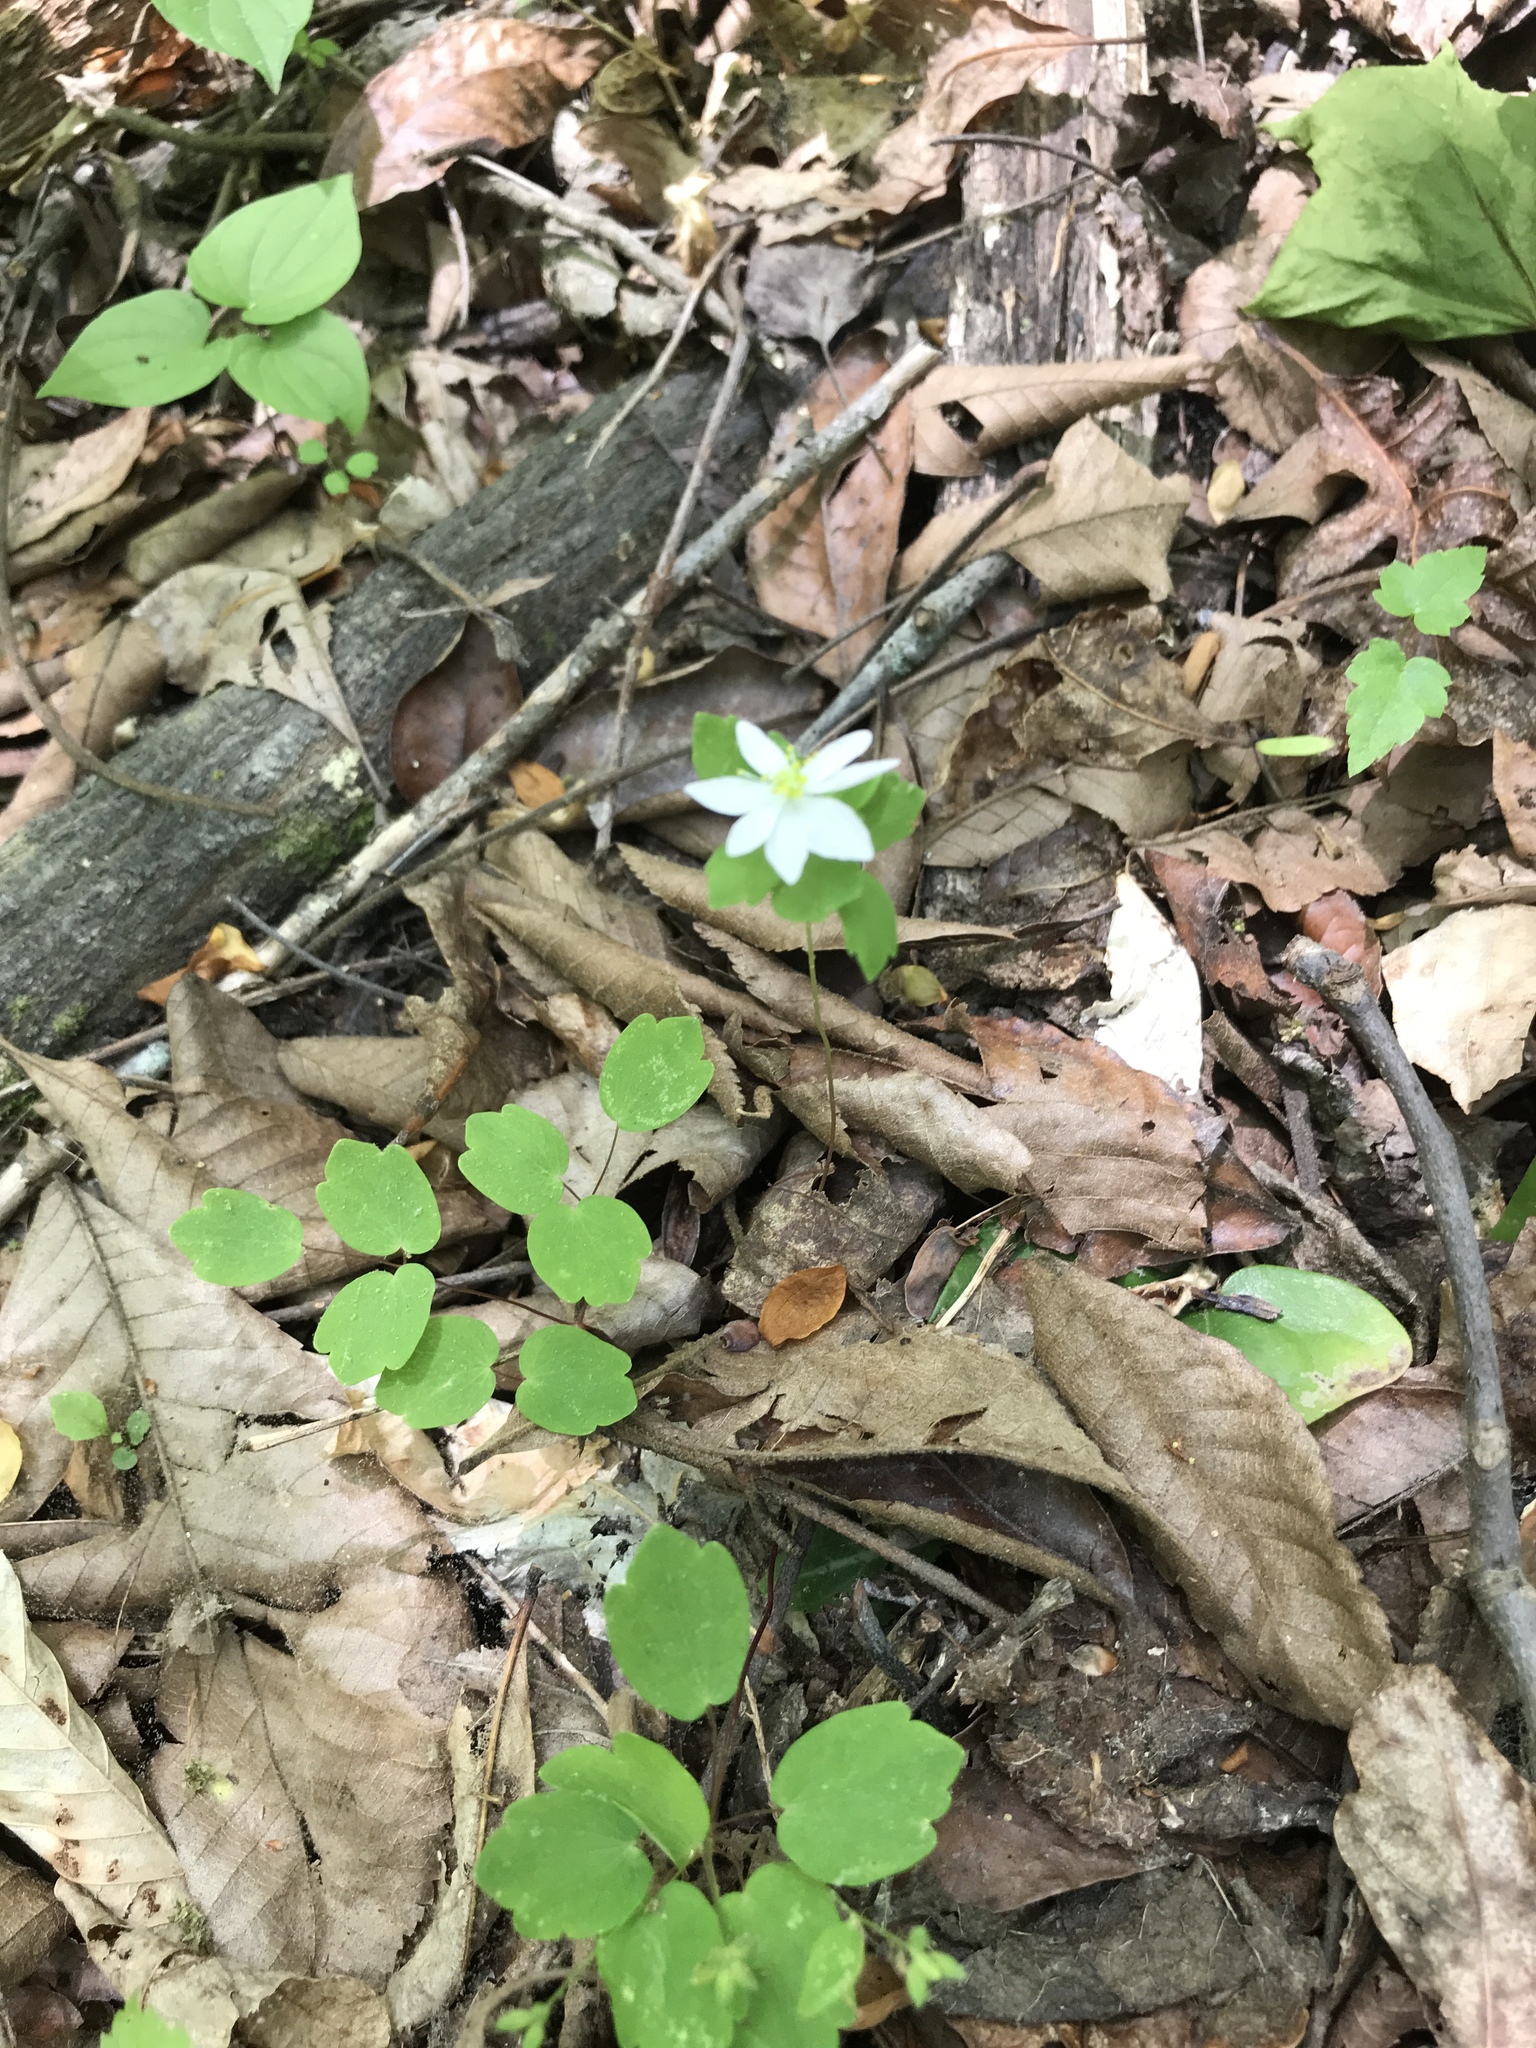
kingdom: Plantae
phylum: Tracheophyta
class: Magnoliopsida
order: Ranunculales
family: Ranunculaceae
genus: Thalictrum
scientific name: Thalictrum thalictroides
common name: Rue-anemone
